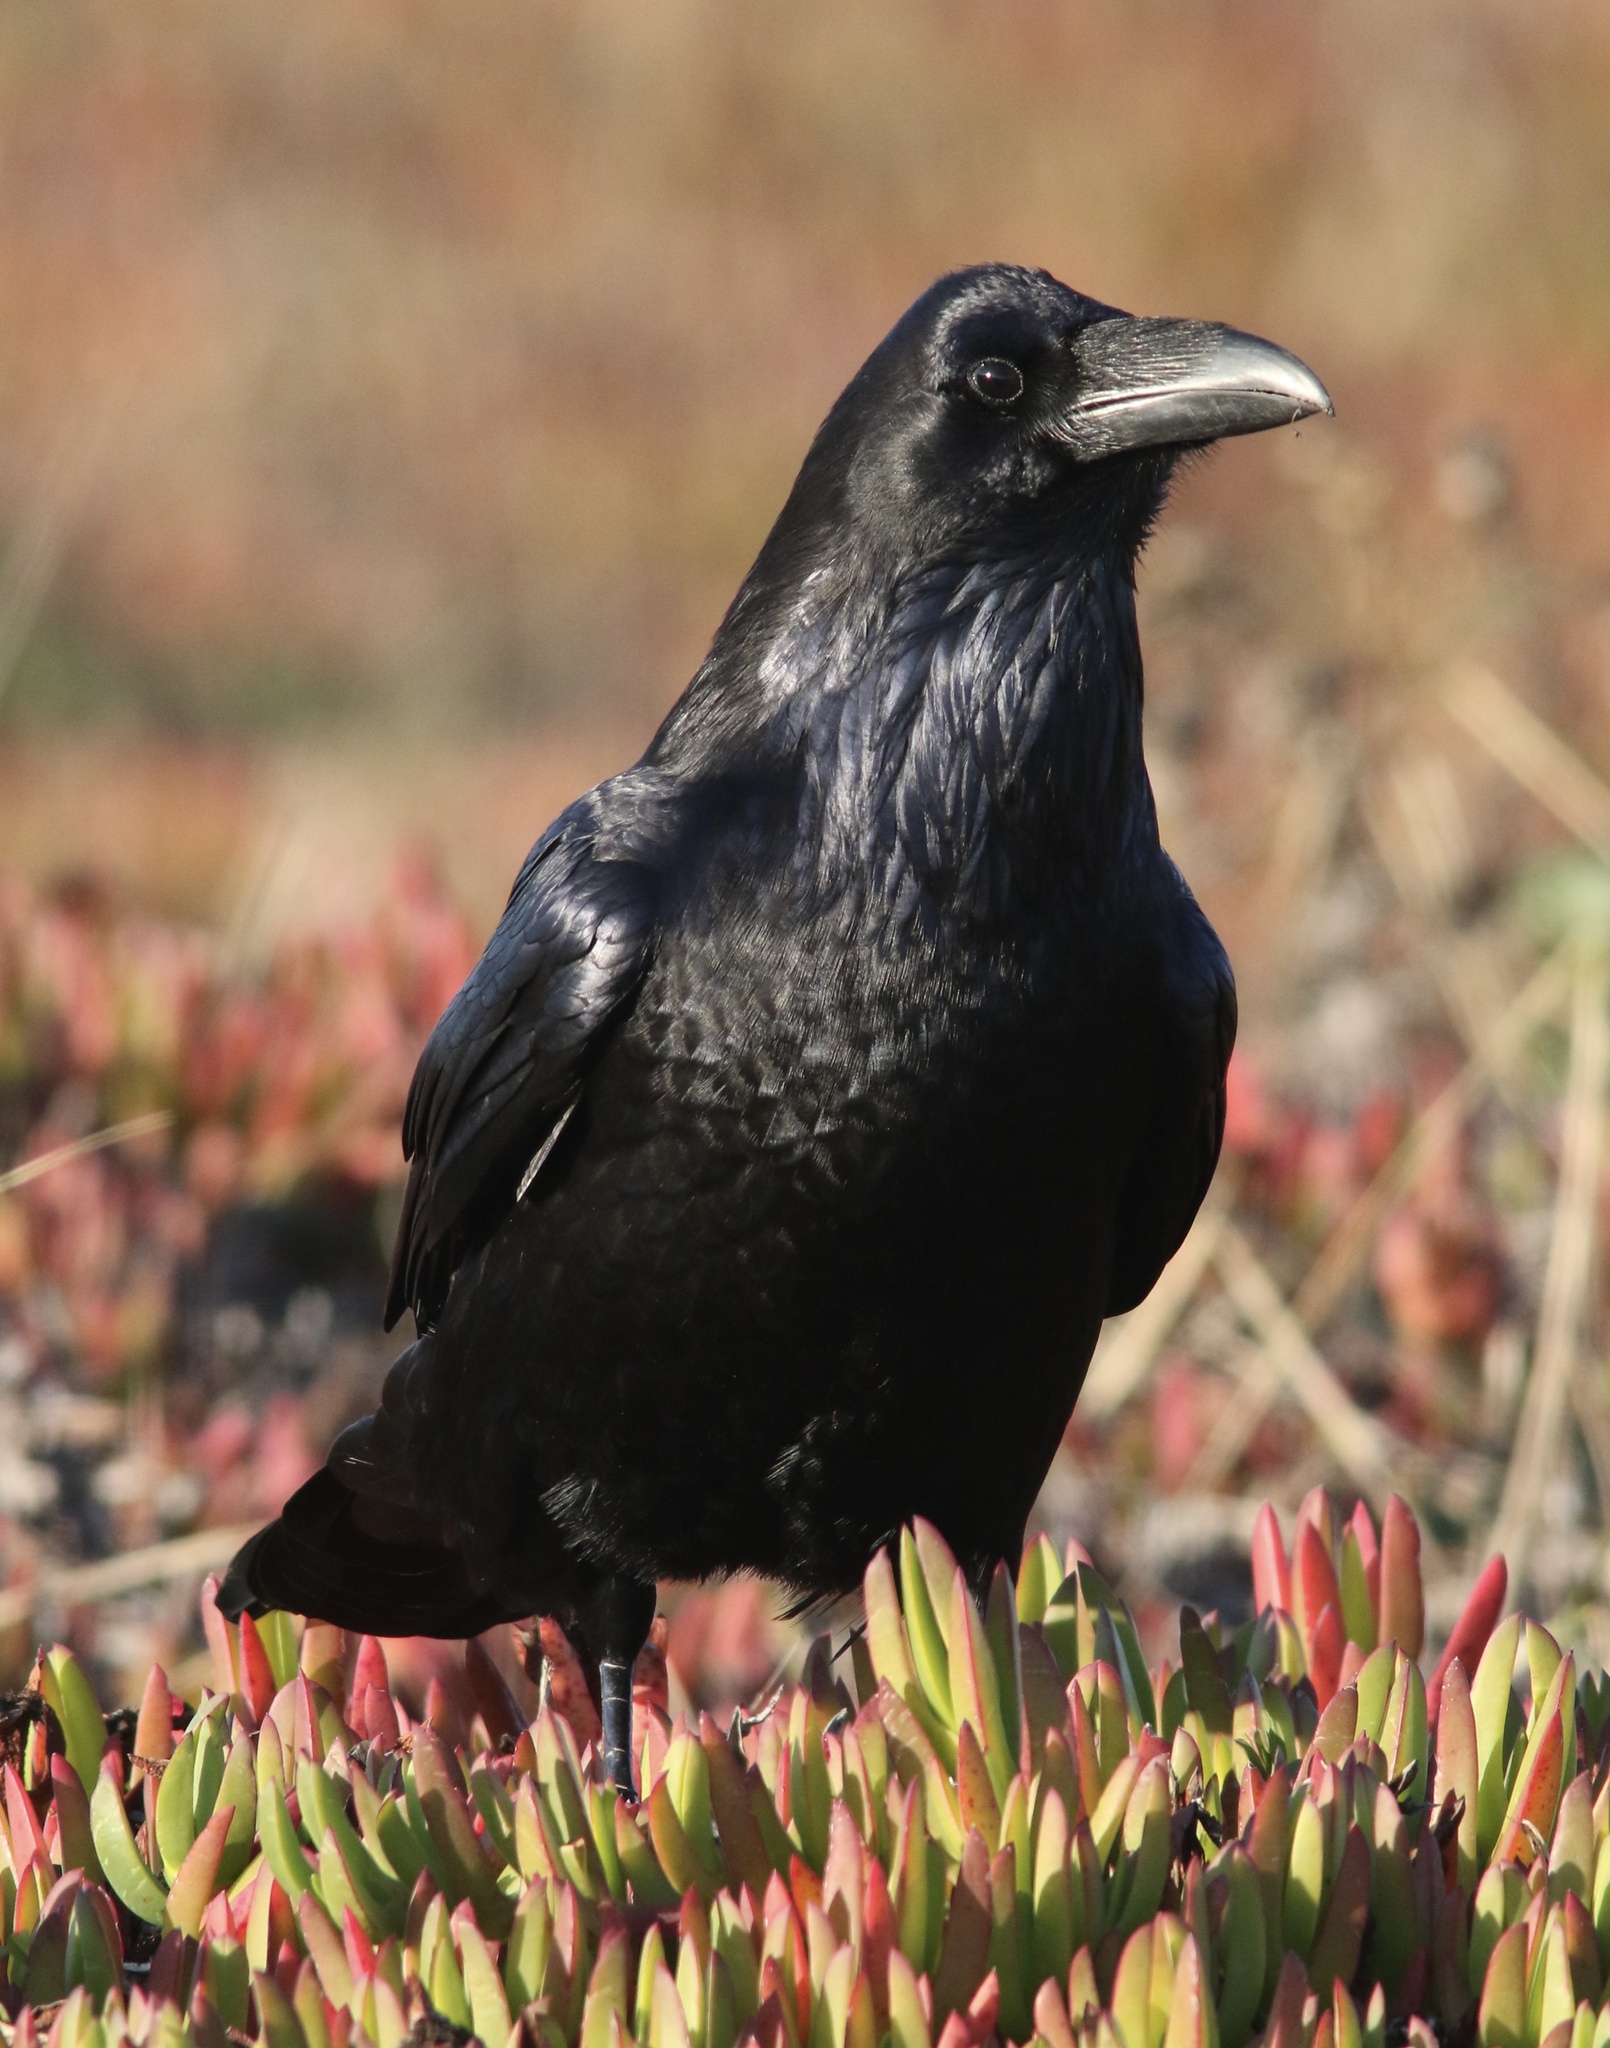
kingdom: Animalia
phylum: Chordata
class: Aves
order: Passeriformes
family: Corvidae
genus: Corvus
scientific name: Corvus corax
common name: Common raven
